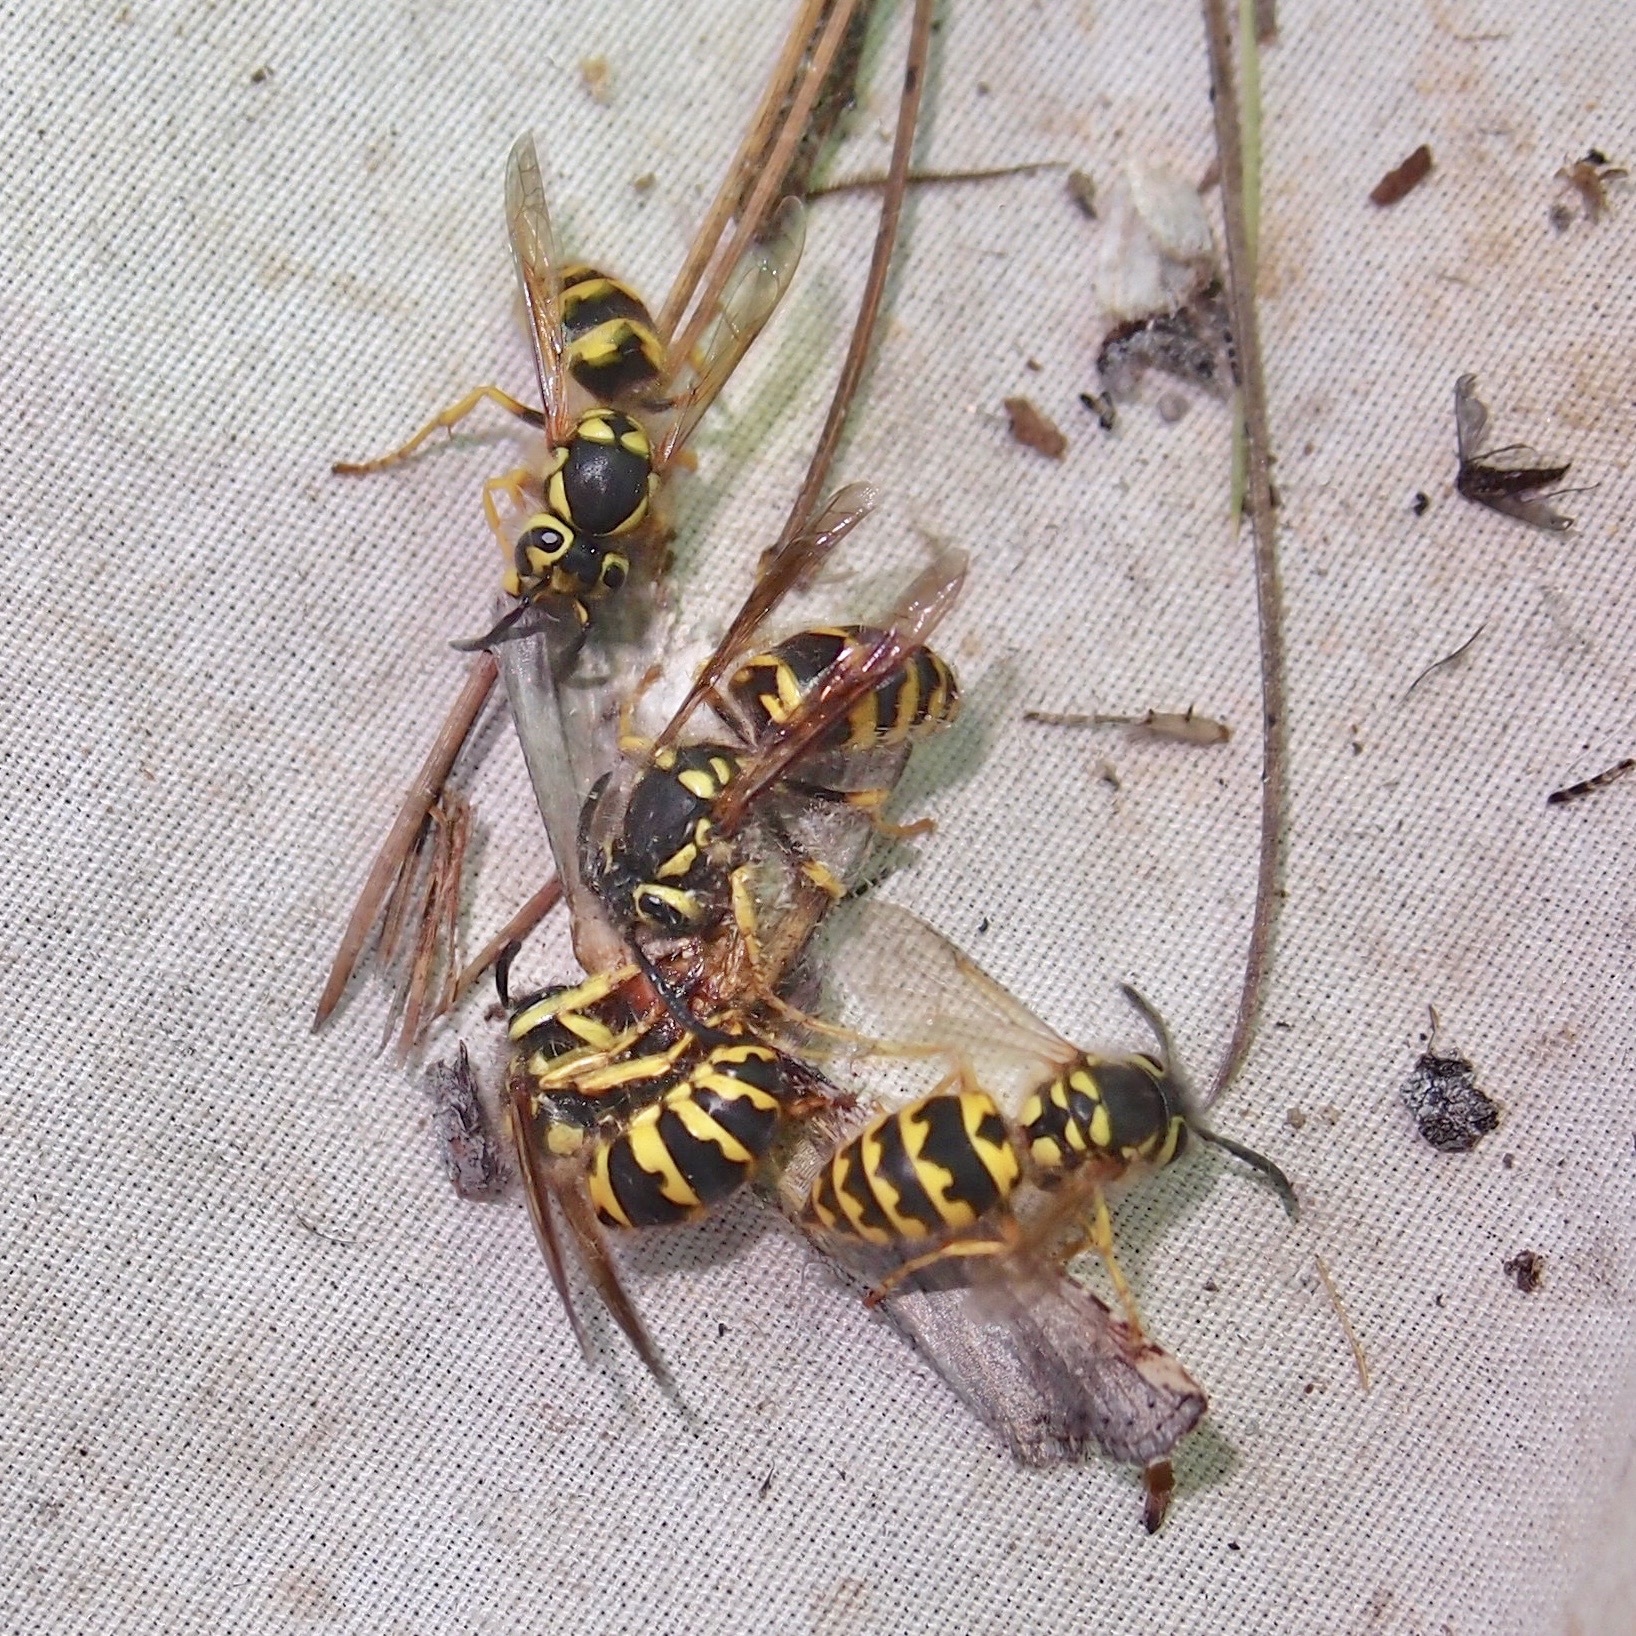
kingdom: Animalia
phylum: Arthropoda
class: Insecta
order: Hymenoptera
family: Vespidae
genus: Vespula
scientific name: Vespula pensylvanica
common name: Western yellowjacket
